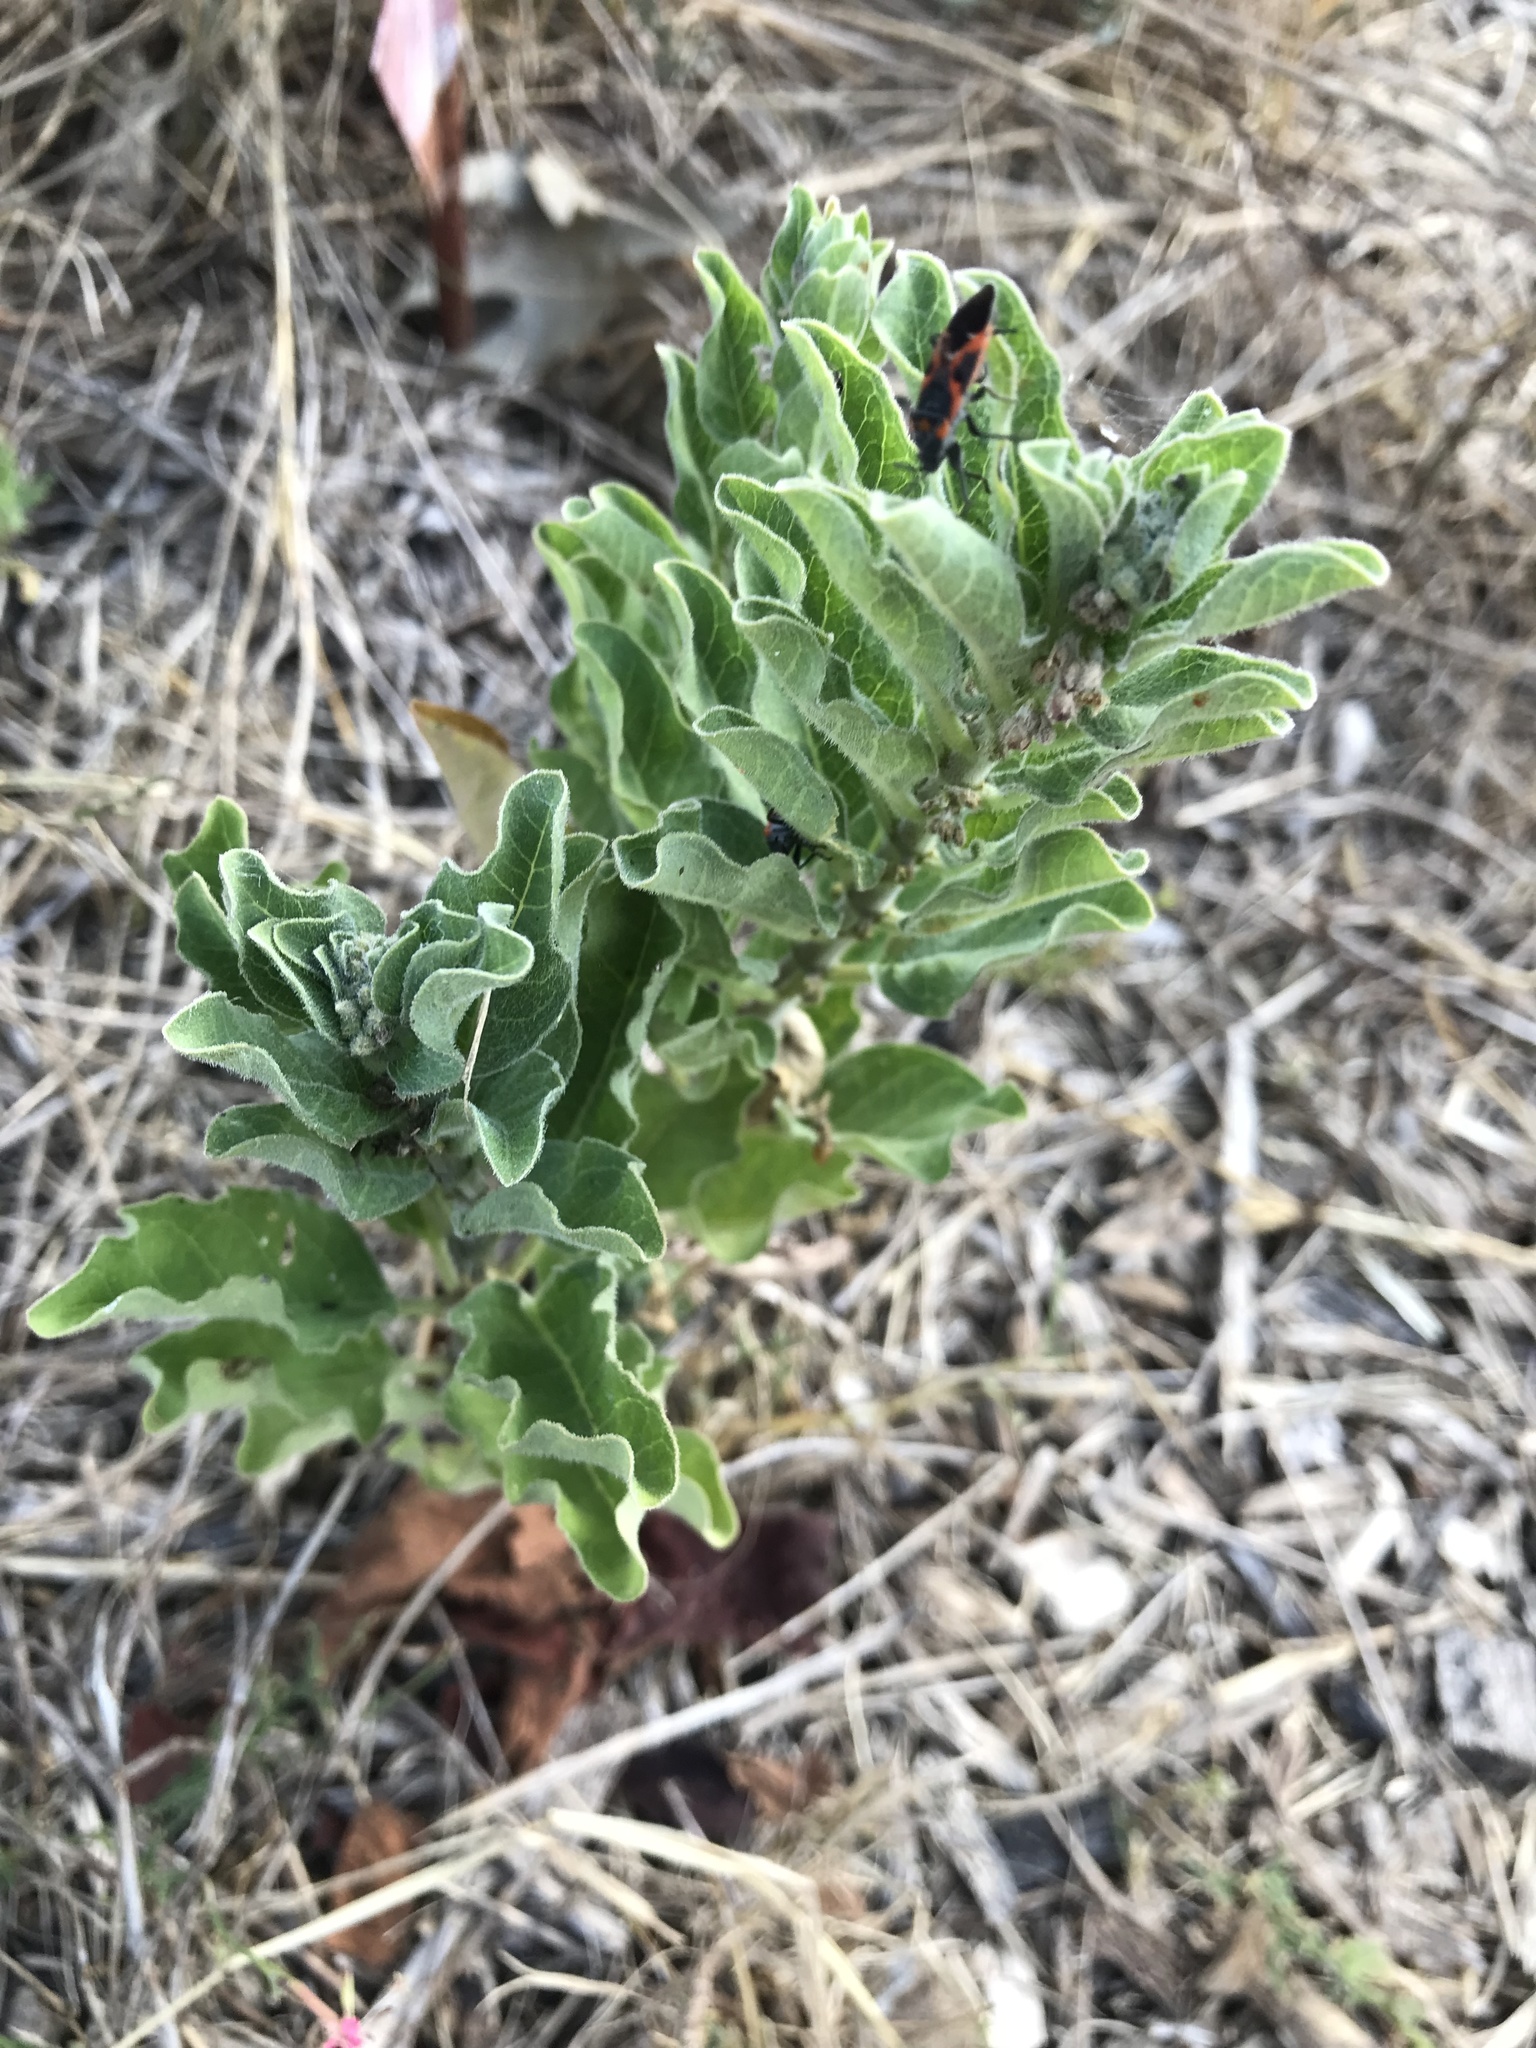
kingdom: Plantae
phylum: Tracheophyta
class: Magnoliopsida
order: Gentianales
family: Apocynaceae
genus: Asclepias
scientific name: Asclepias oenotheroides
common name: Zizotes milkweed
